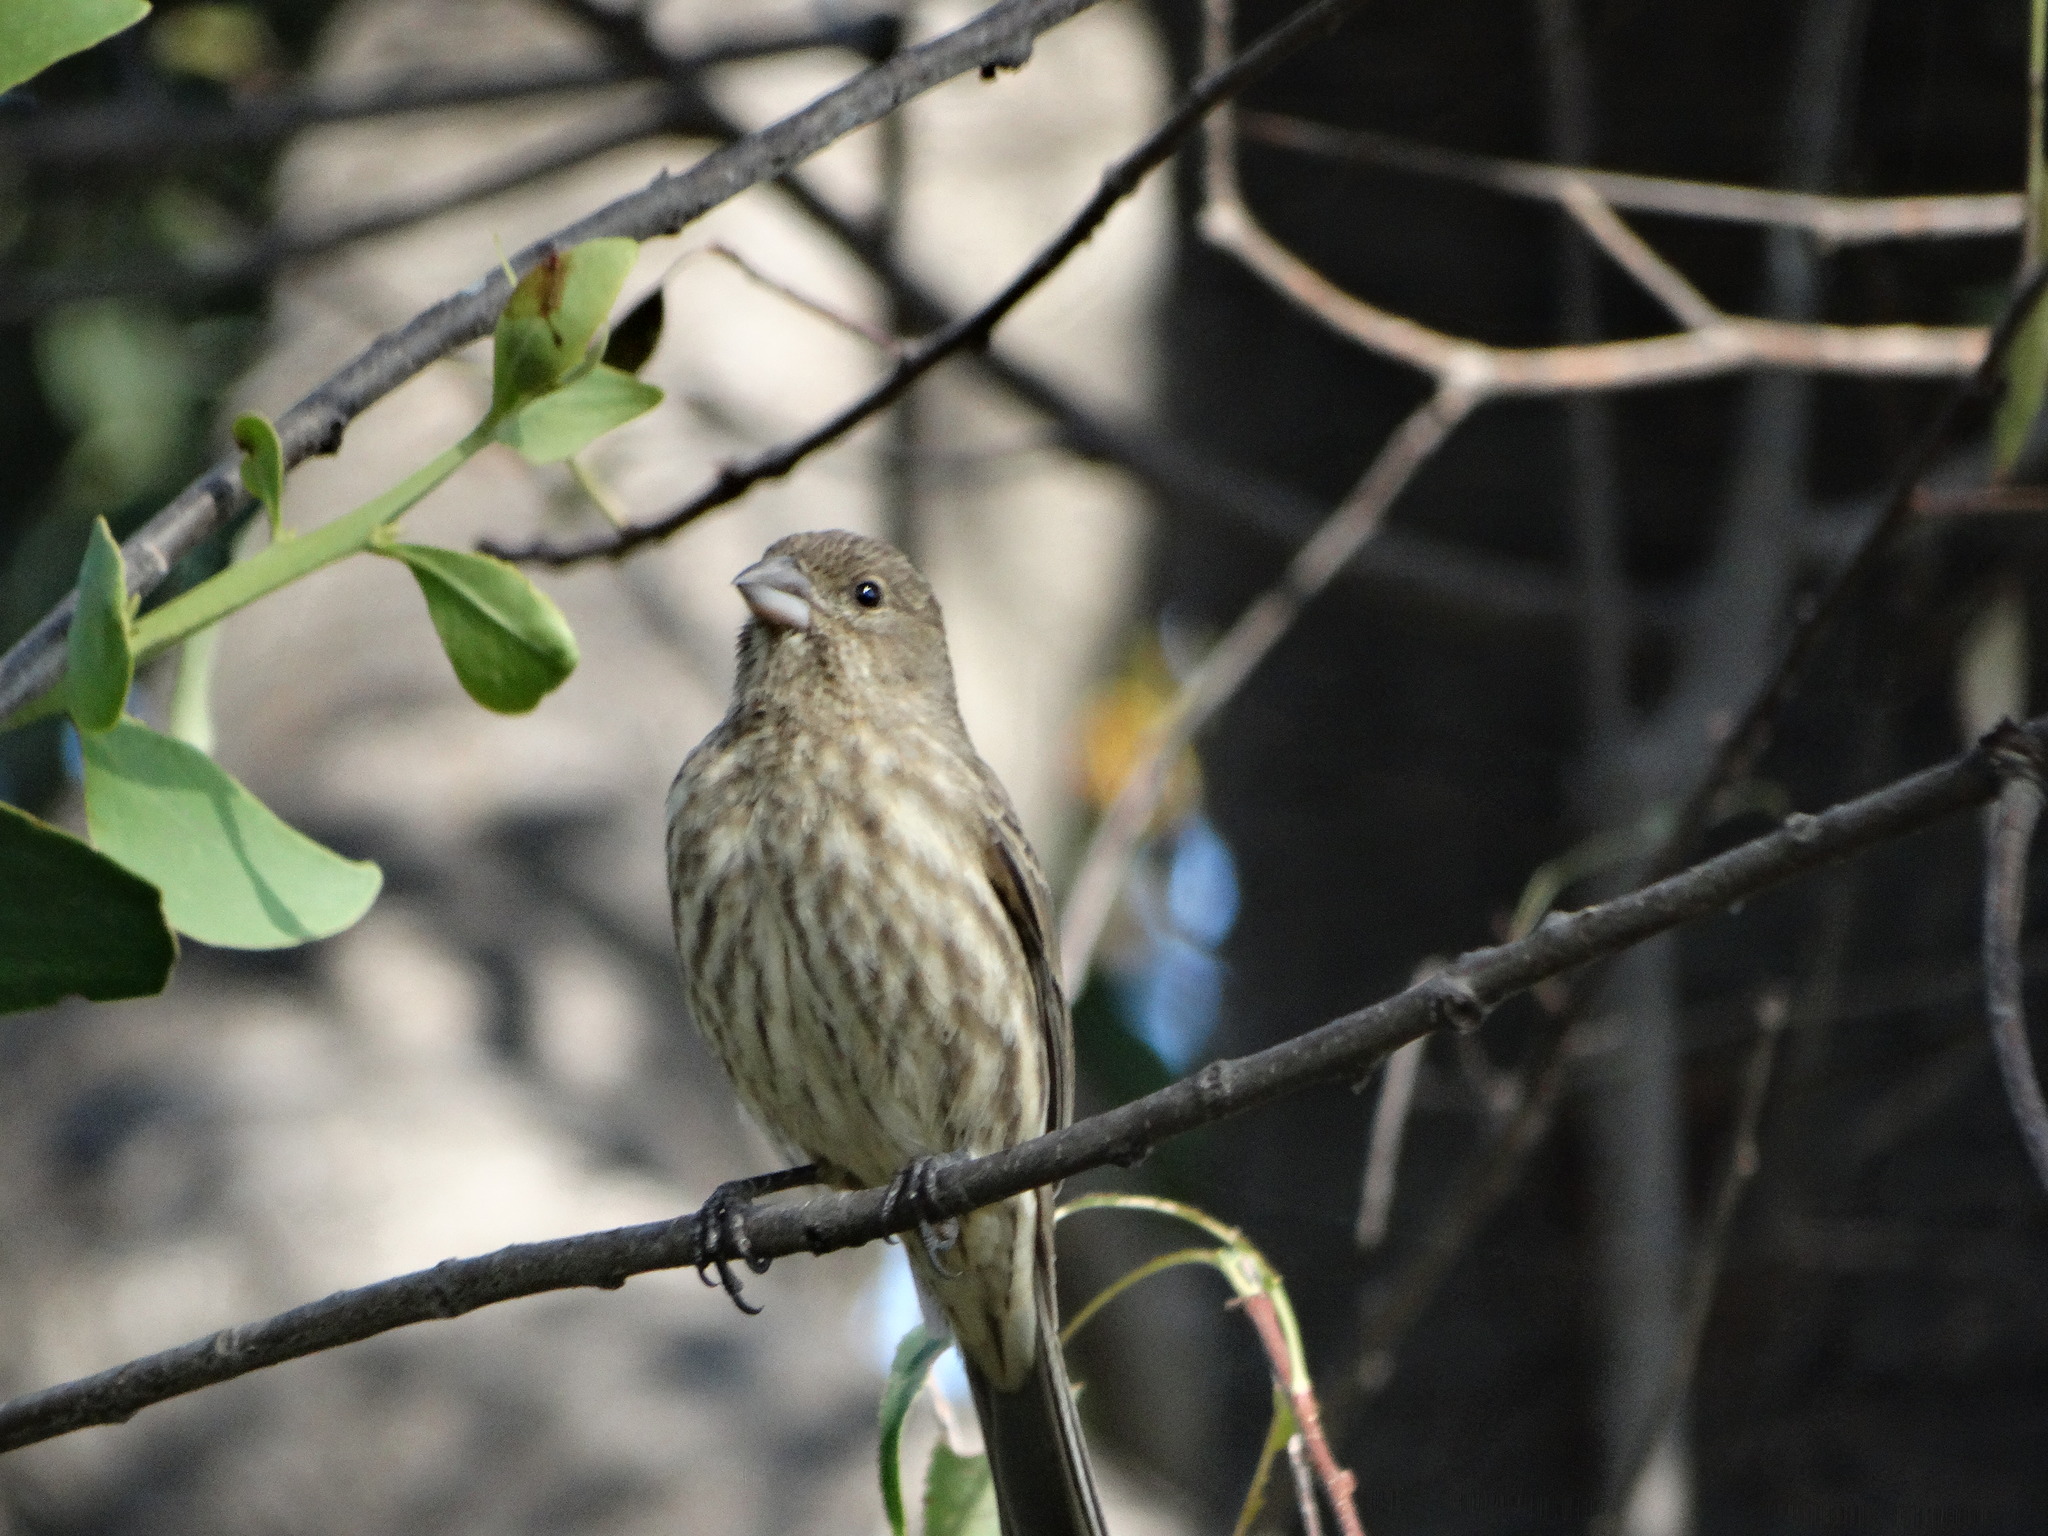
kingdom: Animalia
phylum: Chordata
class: Aves
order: Passeriformes
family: Fringillidae
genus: Haemorhous
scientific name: Haemorhous mexicanus
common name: House finch
